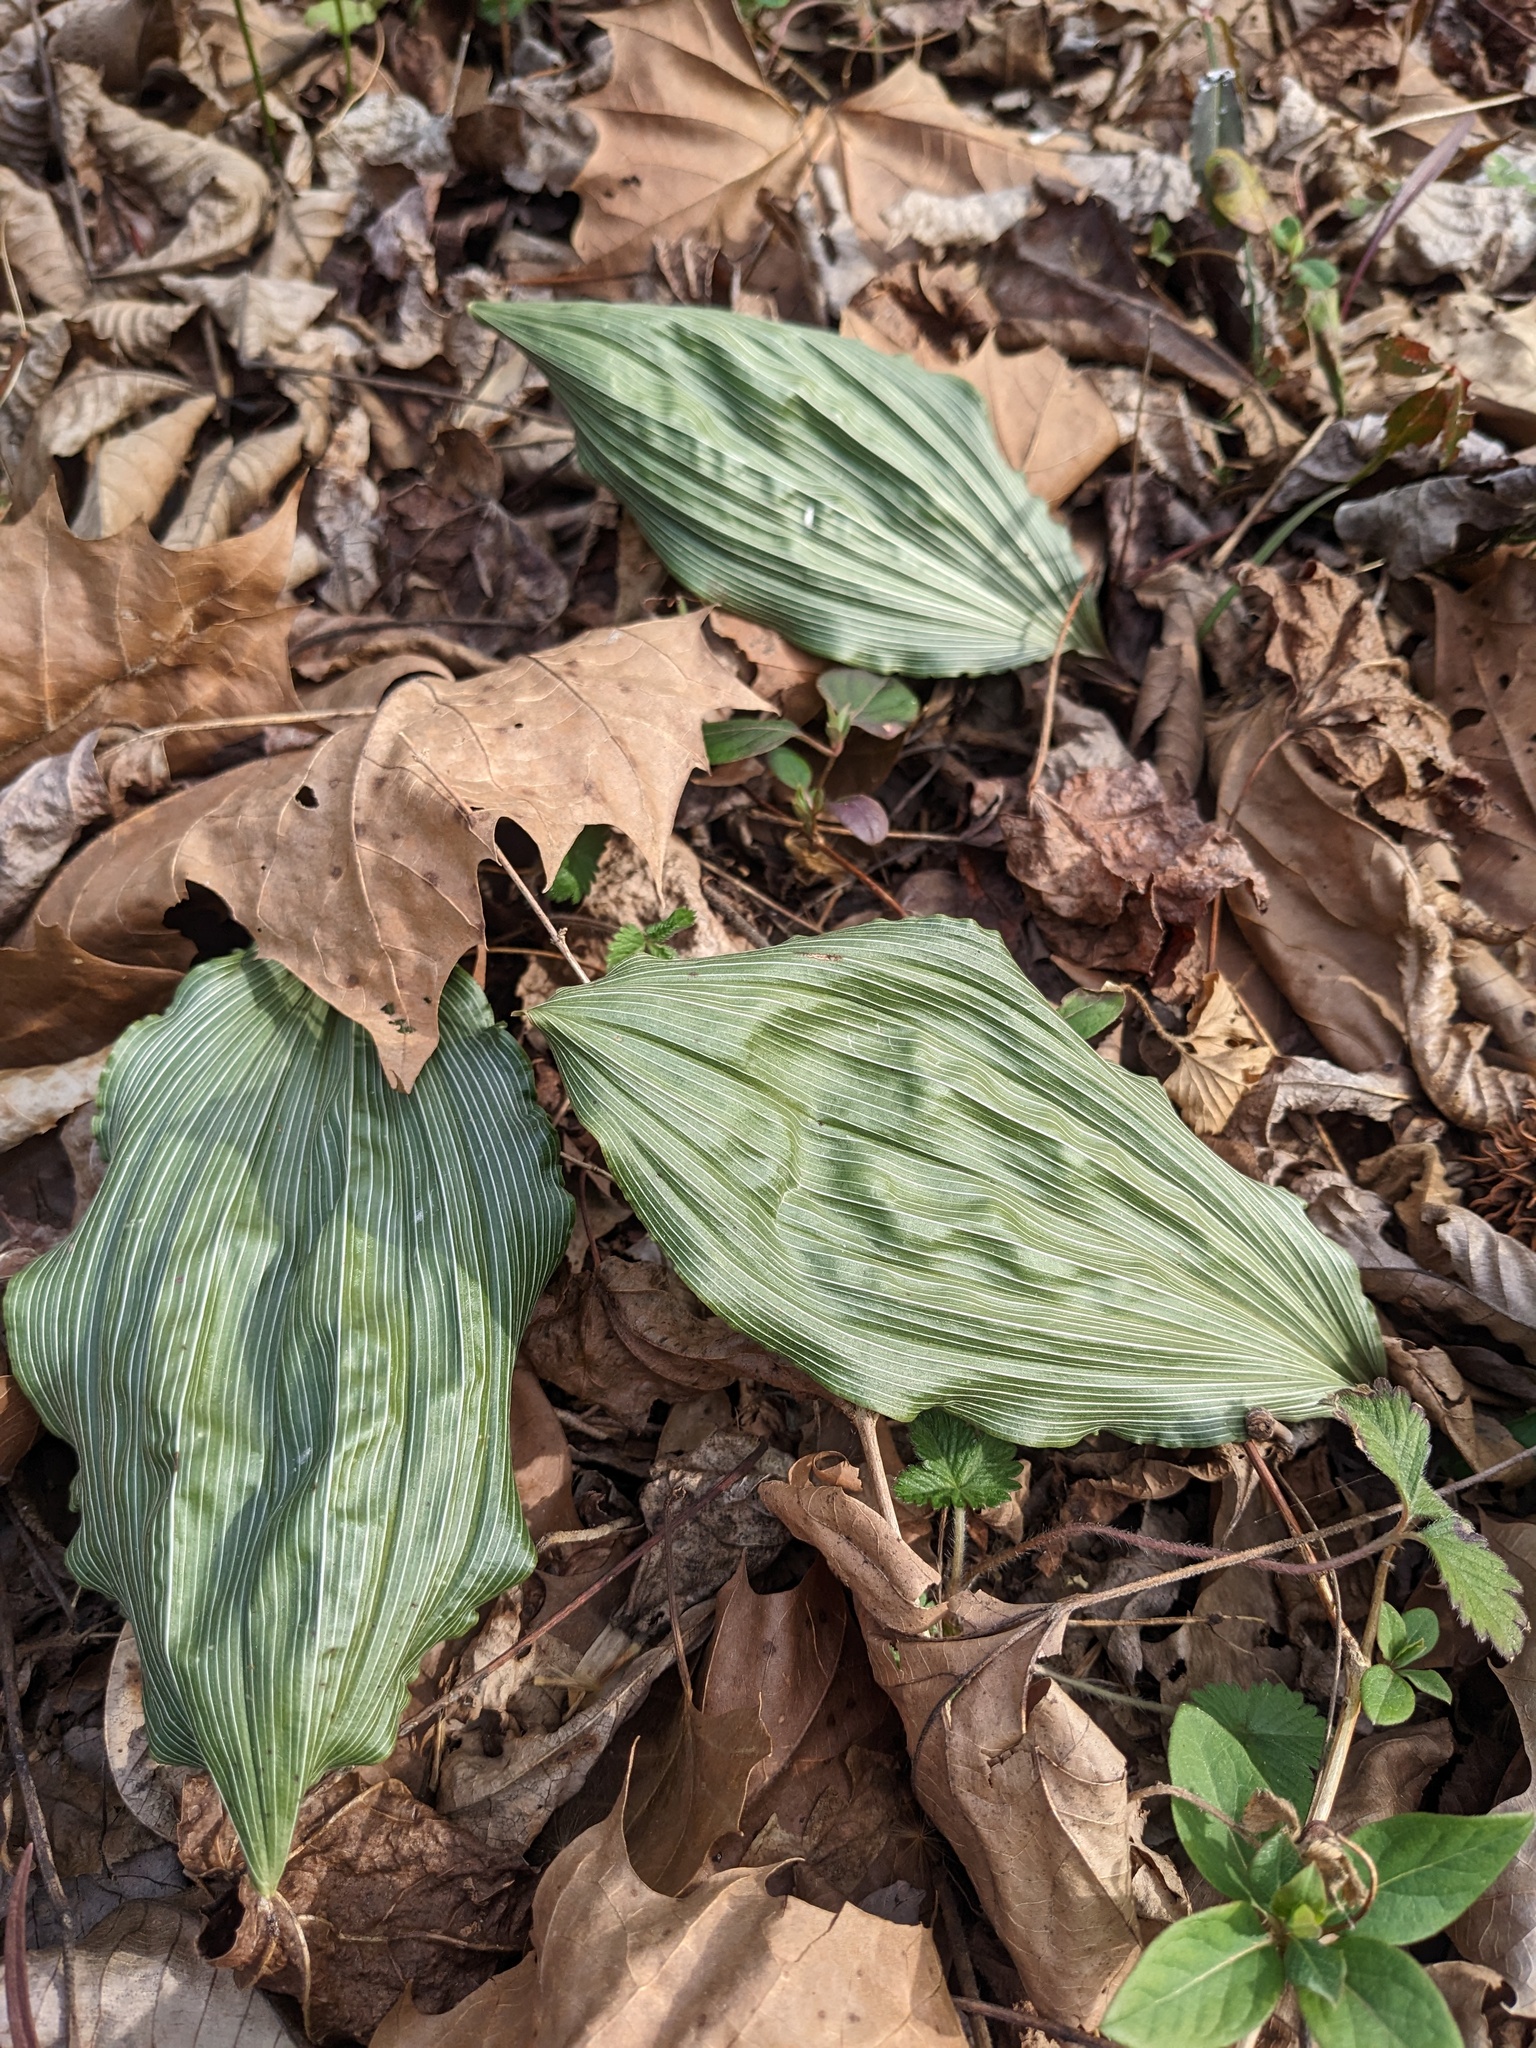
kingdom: Plantae
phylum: Tracheophyta
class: Liliopsida
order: Asparagales
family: Orchidaceae
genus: Aplectrum
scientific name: Aplectrum hyemale
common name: Adam-and-eve
